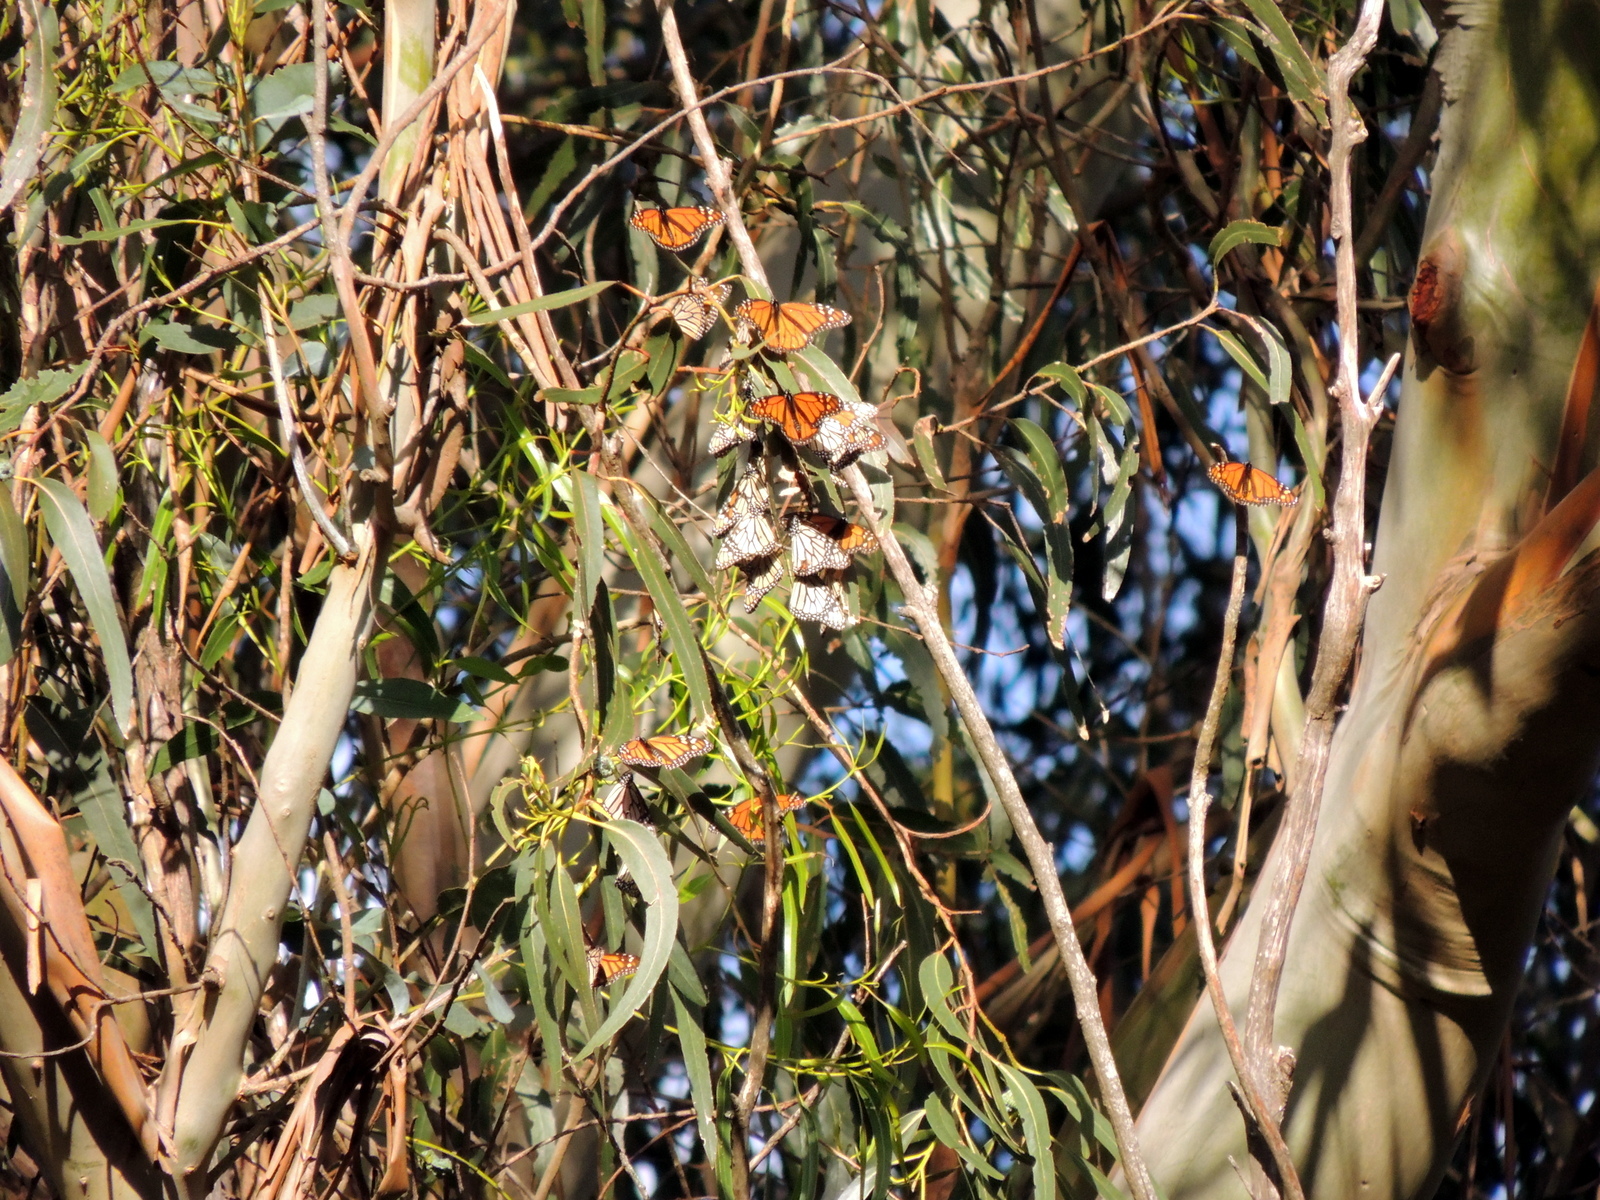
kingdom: Animalia
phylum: Arthropoda
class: Insecta
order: Lepidoptera
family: Nymphalidae
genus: Danaus
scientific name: Danaus plexippus
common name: Monarch
